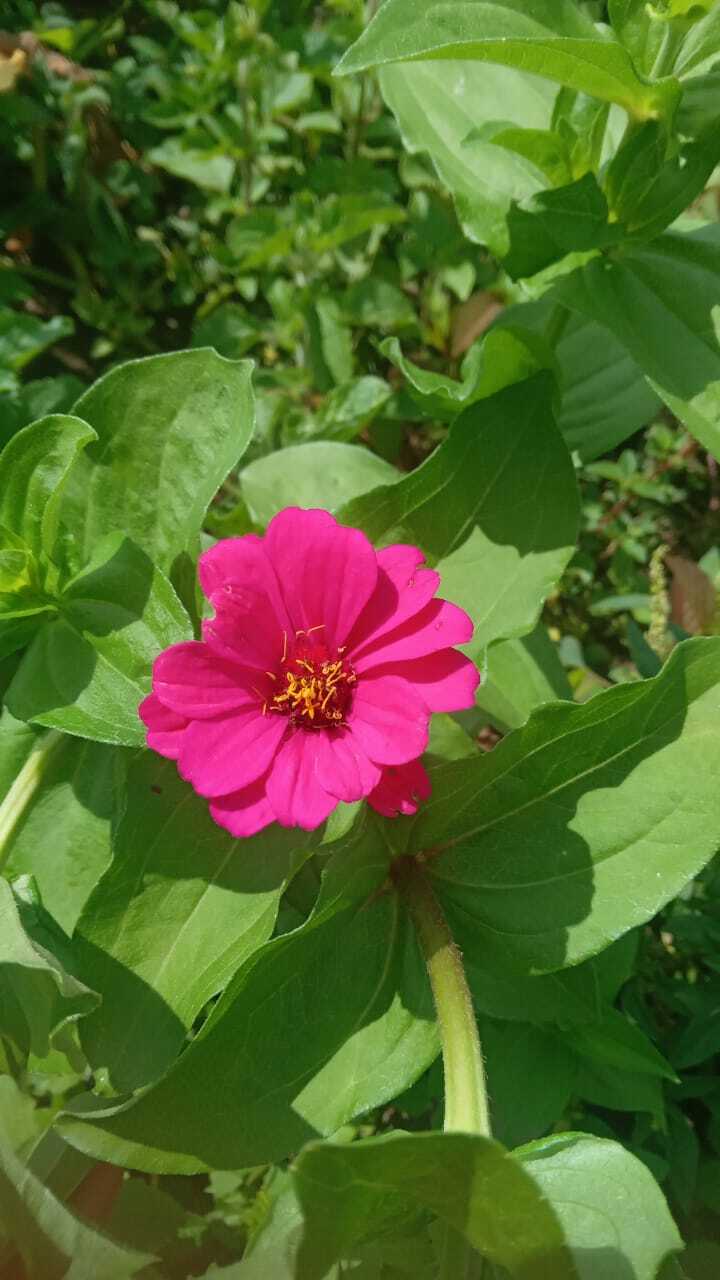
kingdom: Plantae
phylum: Tracheophyta
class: Magnoliopsida
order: Asterales
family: Asteraceae
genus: Zinnia
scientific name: Zinnia elegans
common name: Youth-and-age
